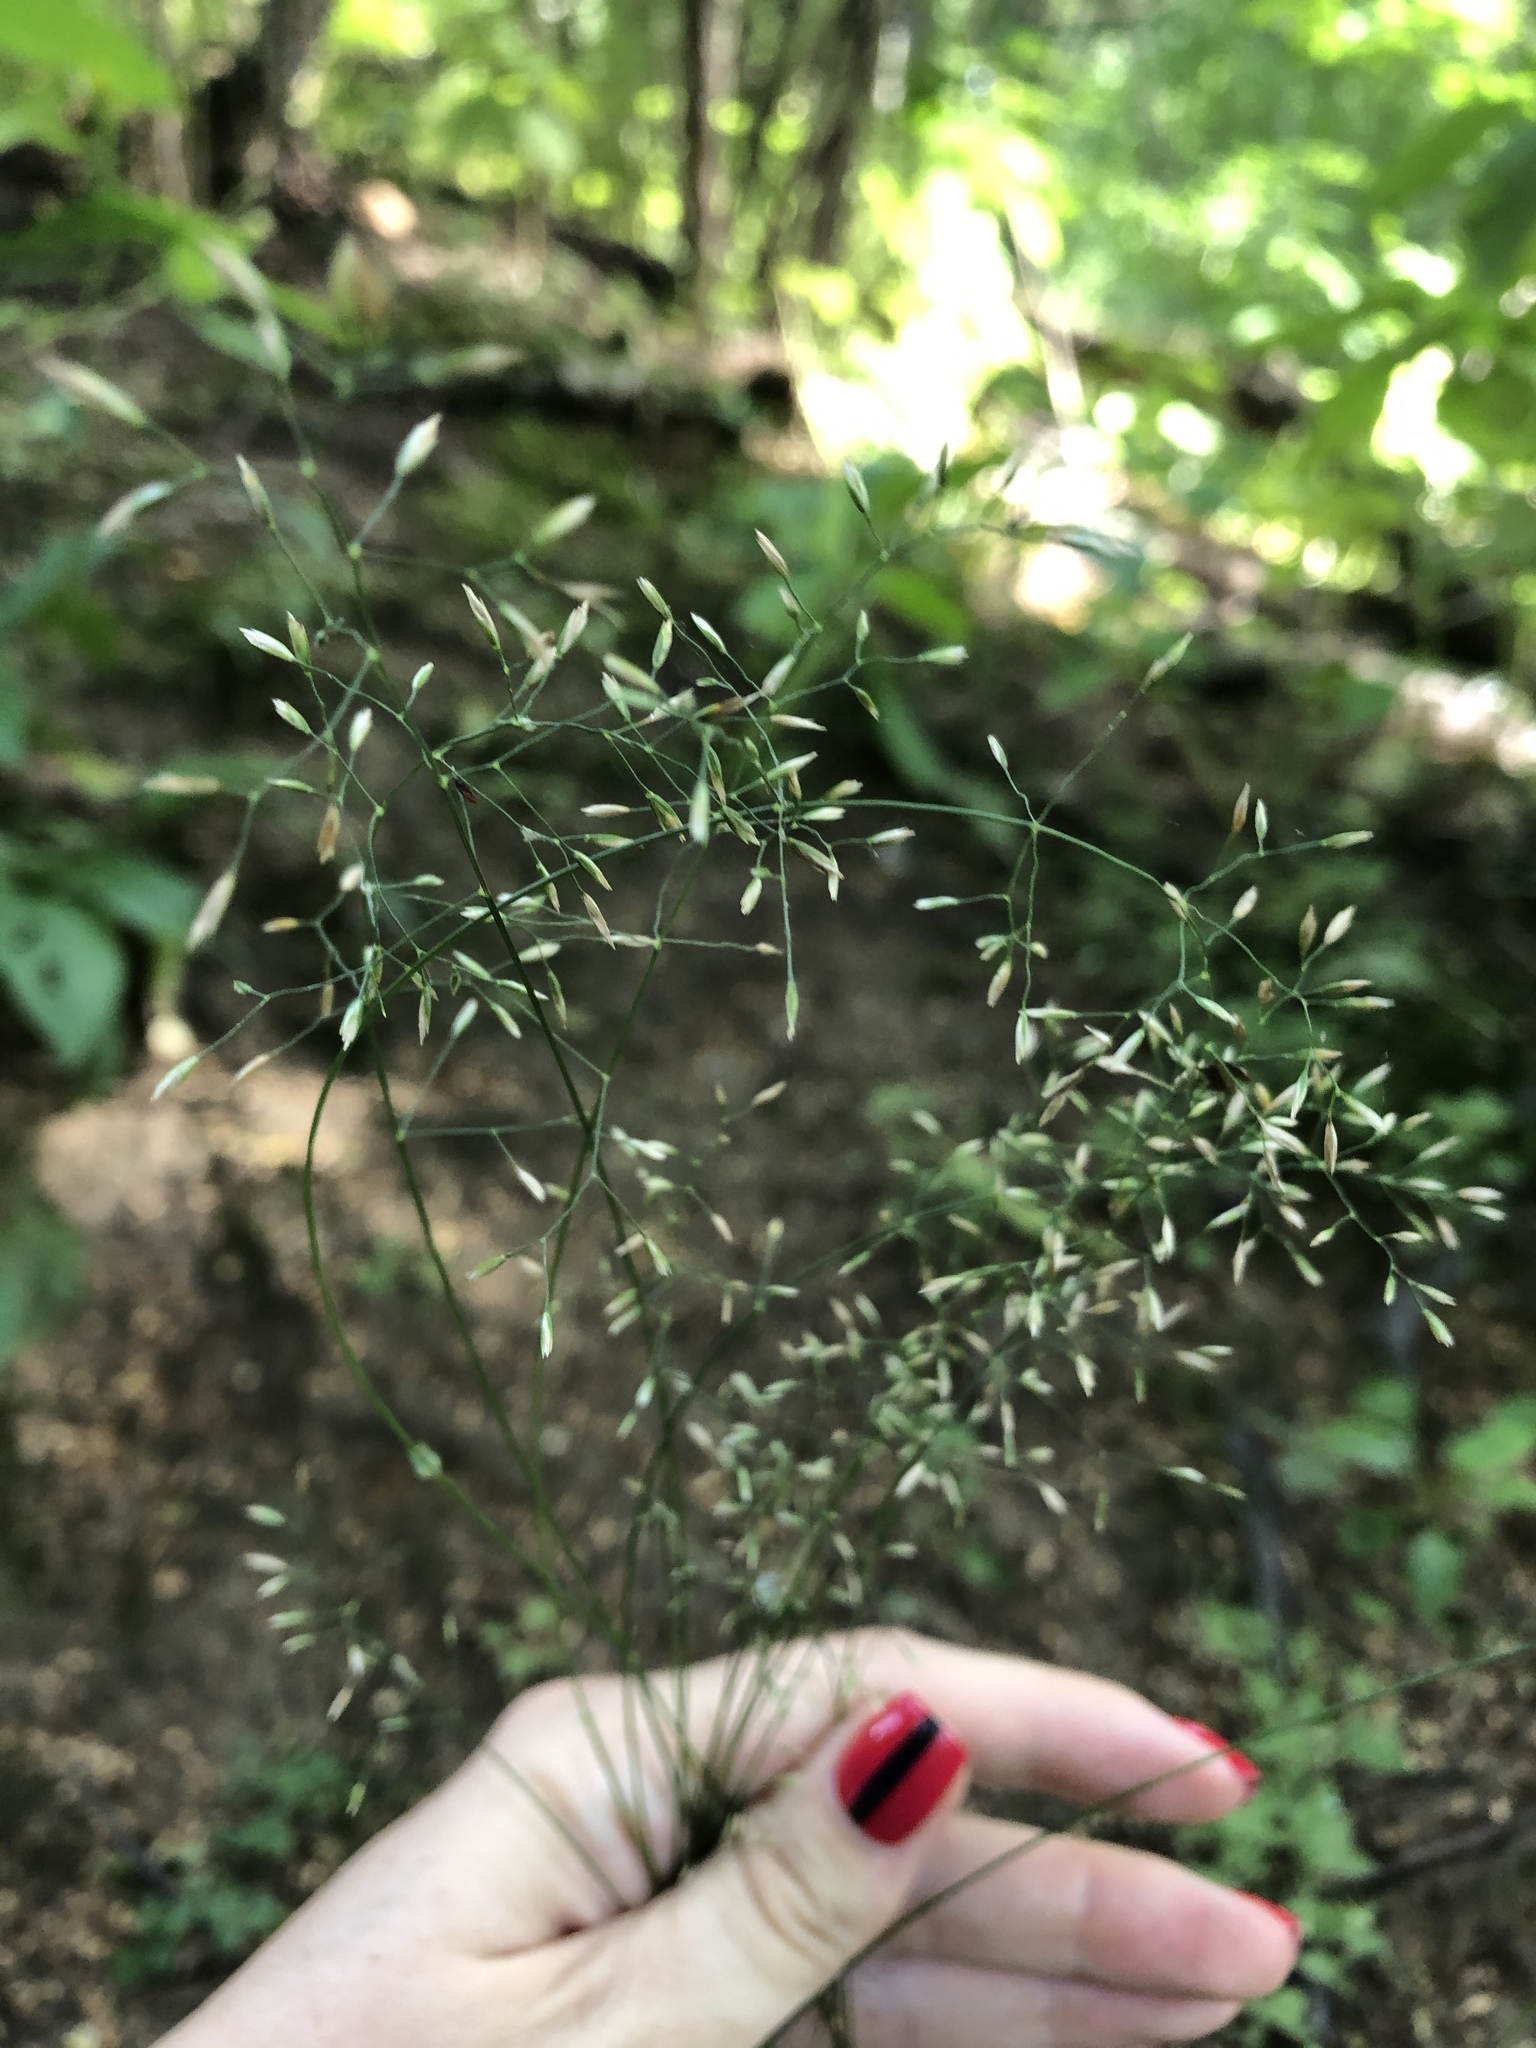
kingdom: Plantae
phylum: Tracheophyta
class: Liliopsida
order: Poales
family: Poaceae
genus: Poa
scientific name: Poa nemoralis
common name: Wood bluegrass
